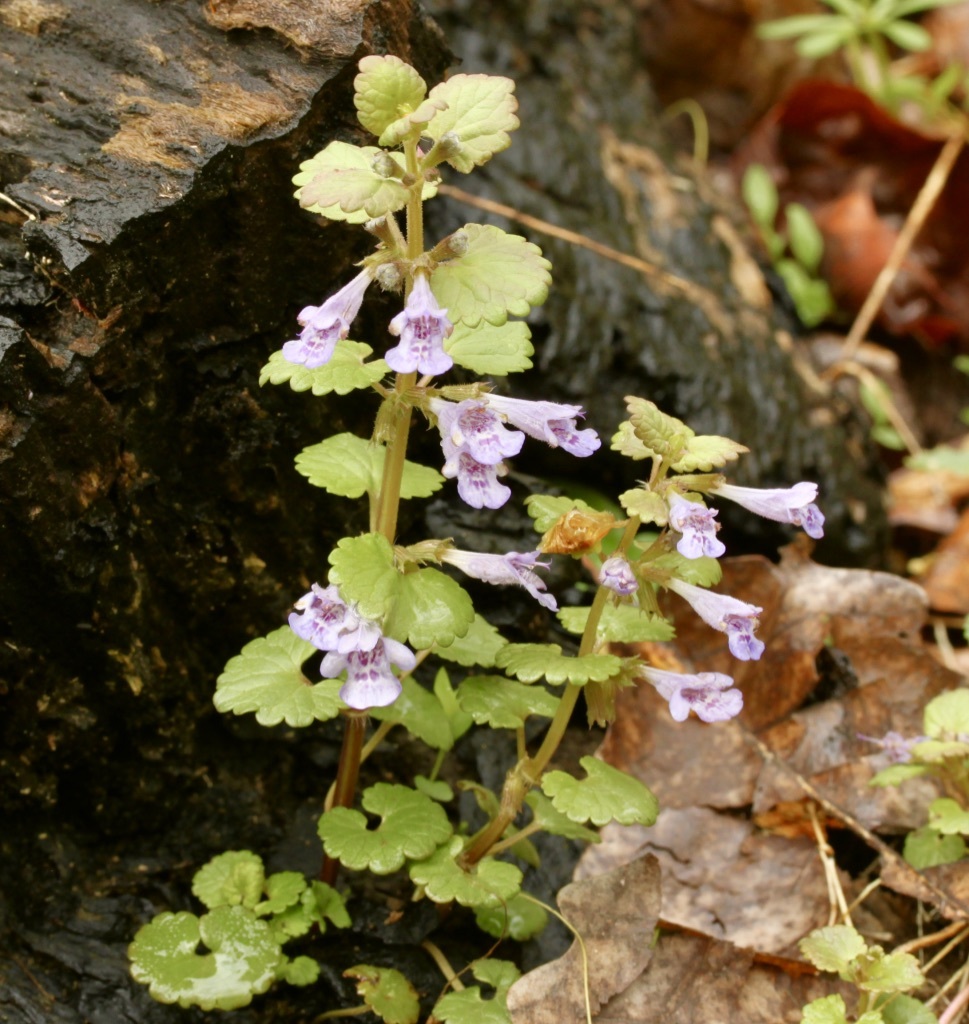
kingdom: Plantae
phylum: Tracheophyta
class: Magnoliopsida
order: Lamiales
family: Lamiaceae
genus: Glechoma
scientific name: Glechoma hederacea
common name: Ground ivy
